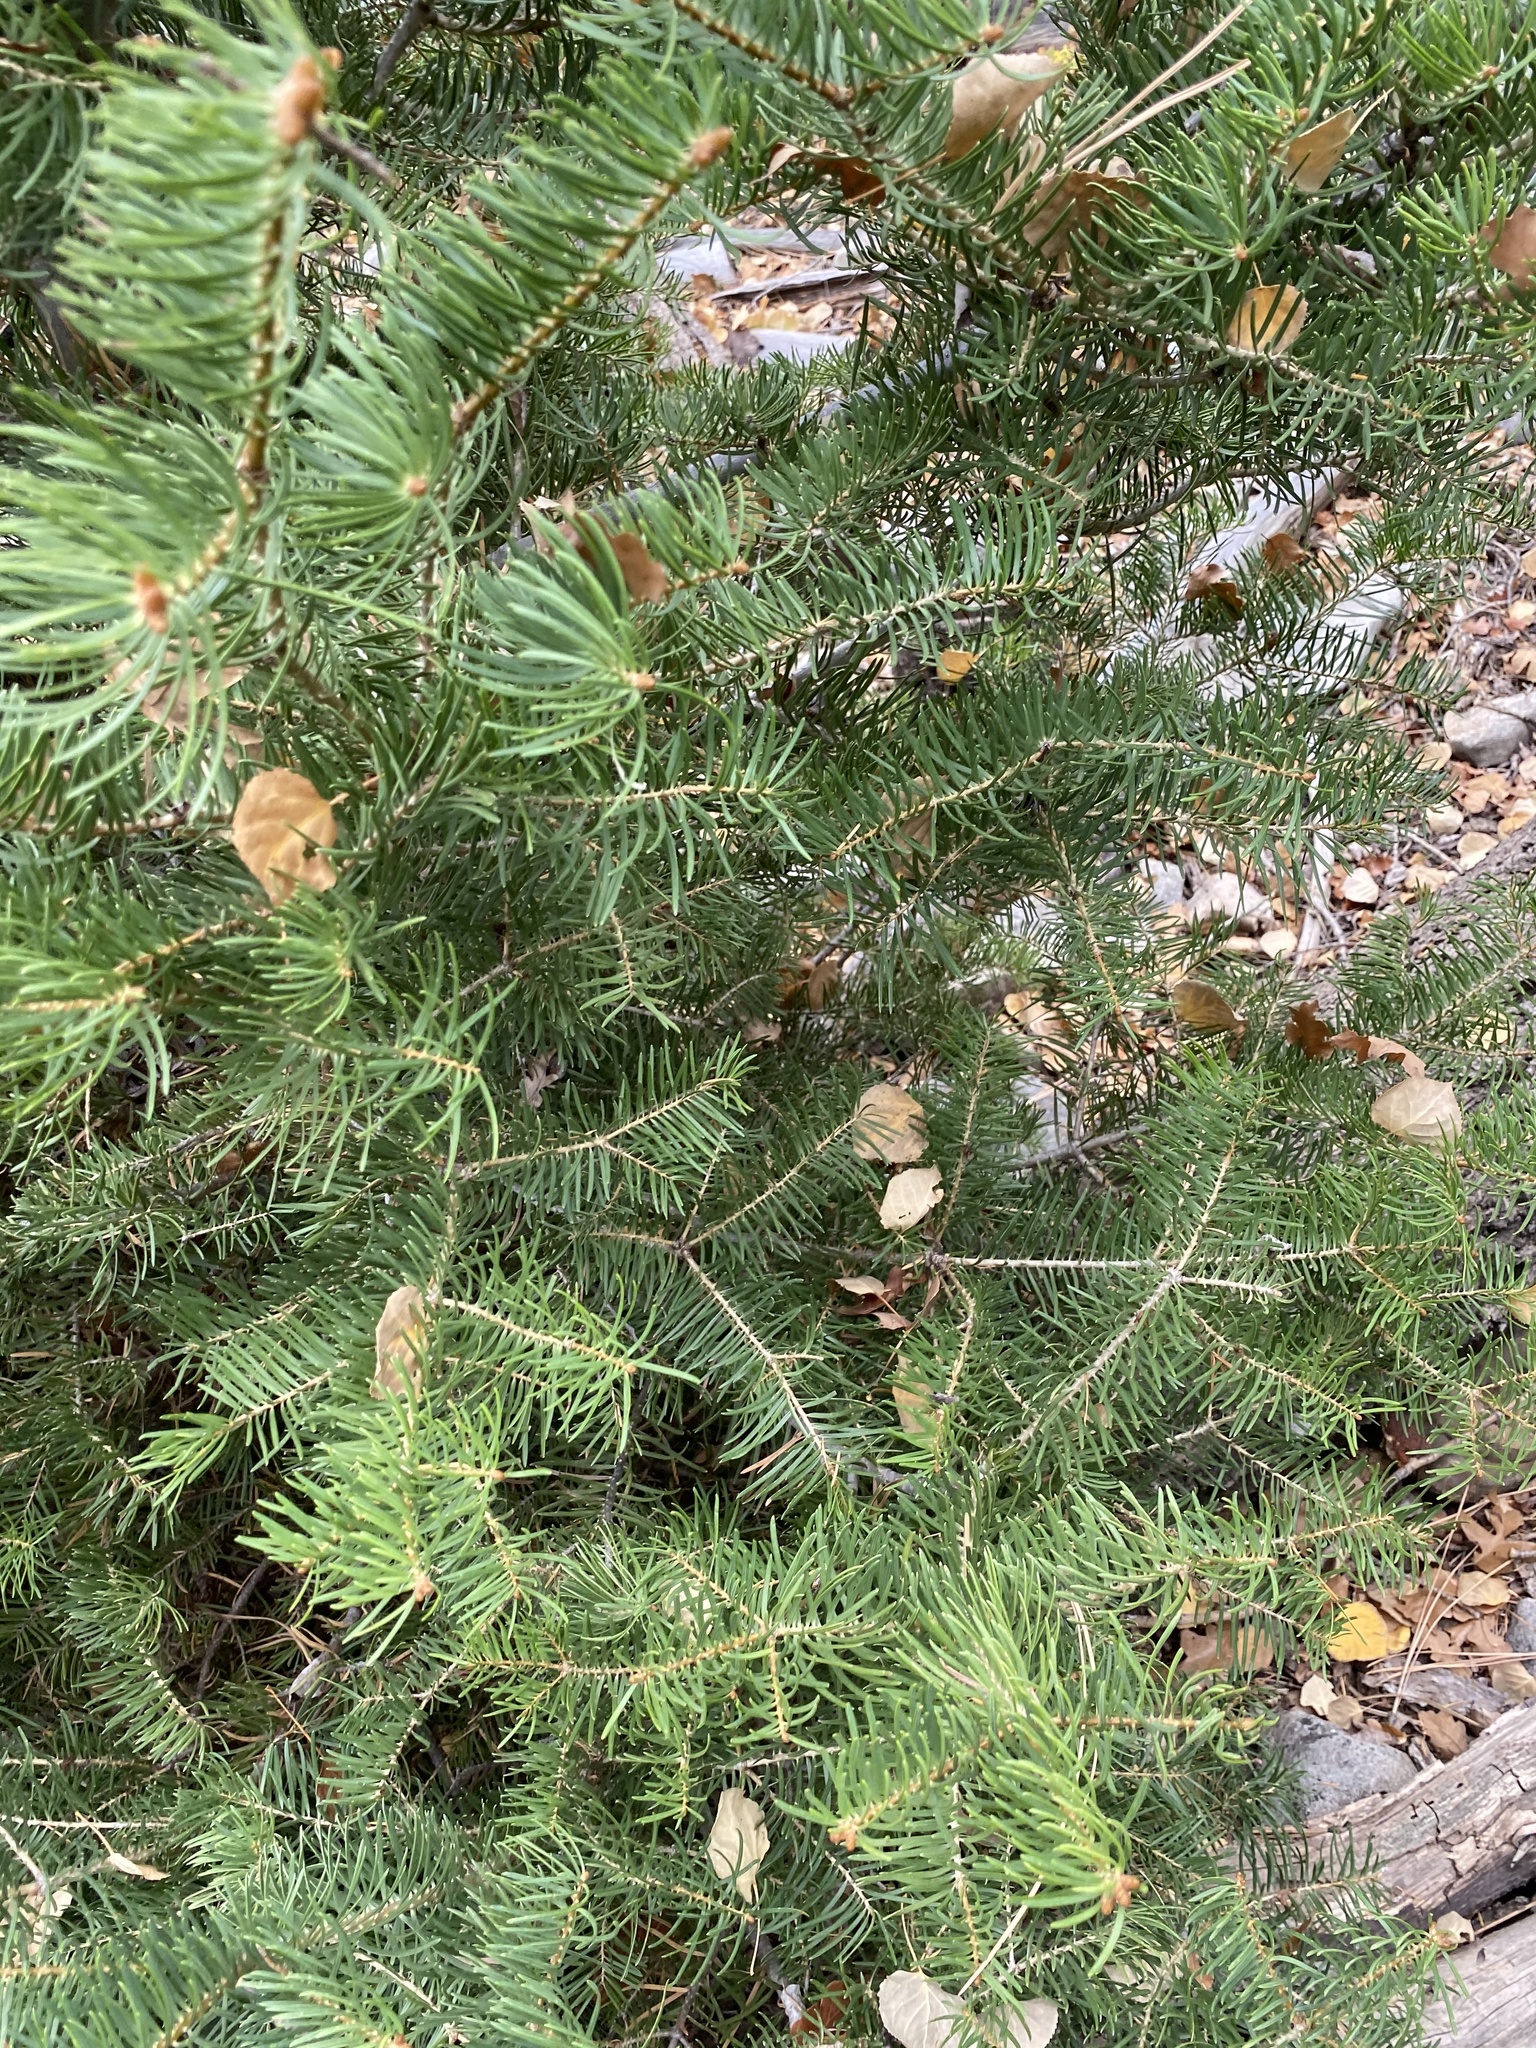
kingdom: Plantae
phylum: Tracheophyta
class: Pinopsida
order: Pinales
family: Pinaceae
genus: Abies
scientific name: Abies concolor
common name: Colorado fir
